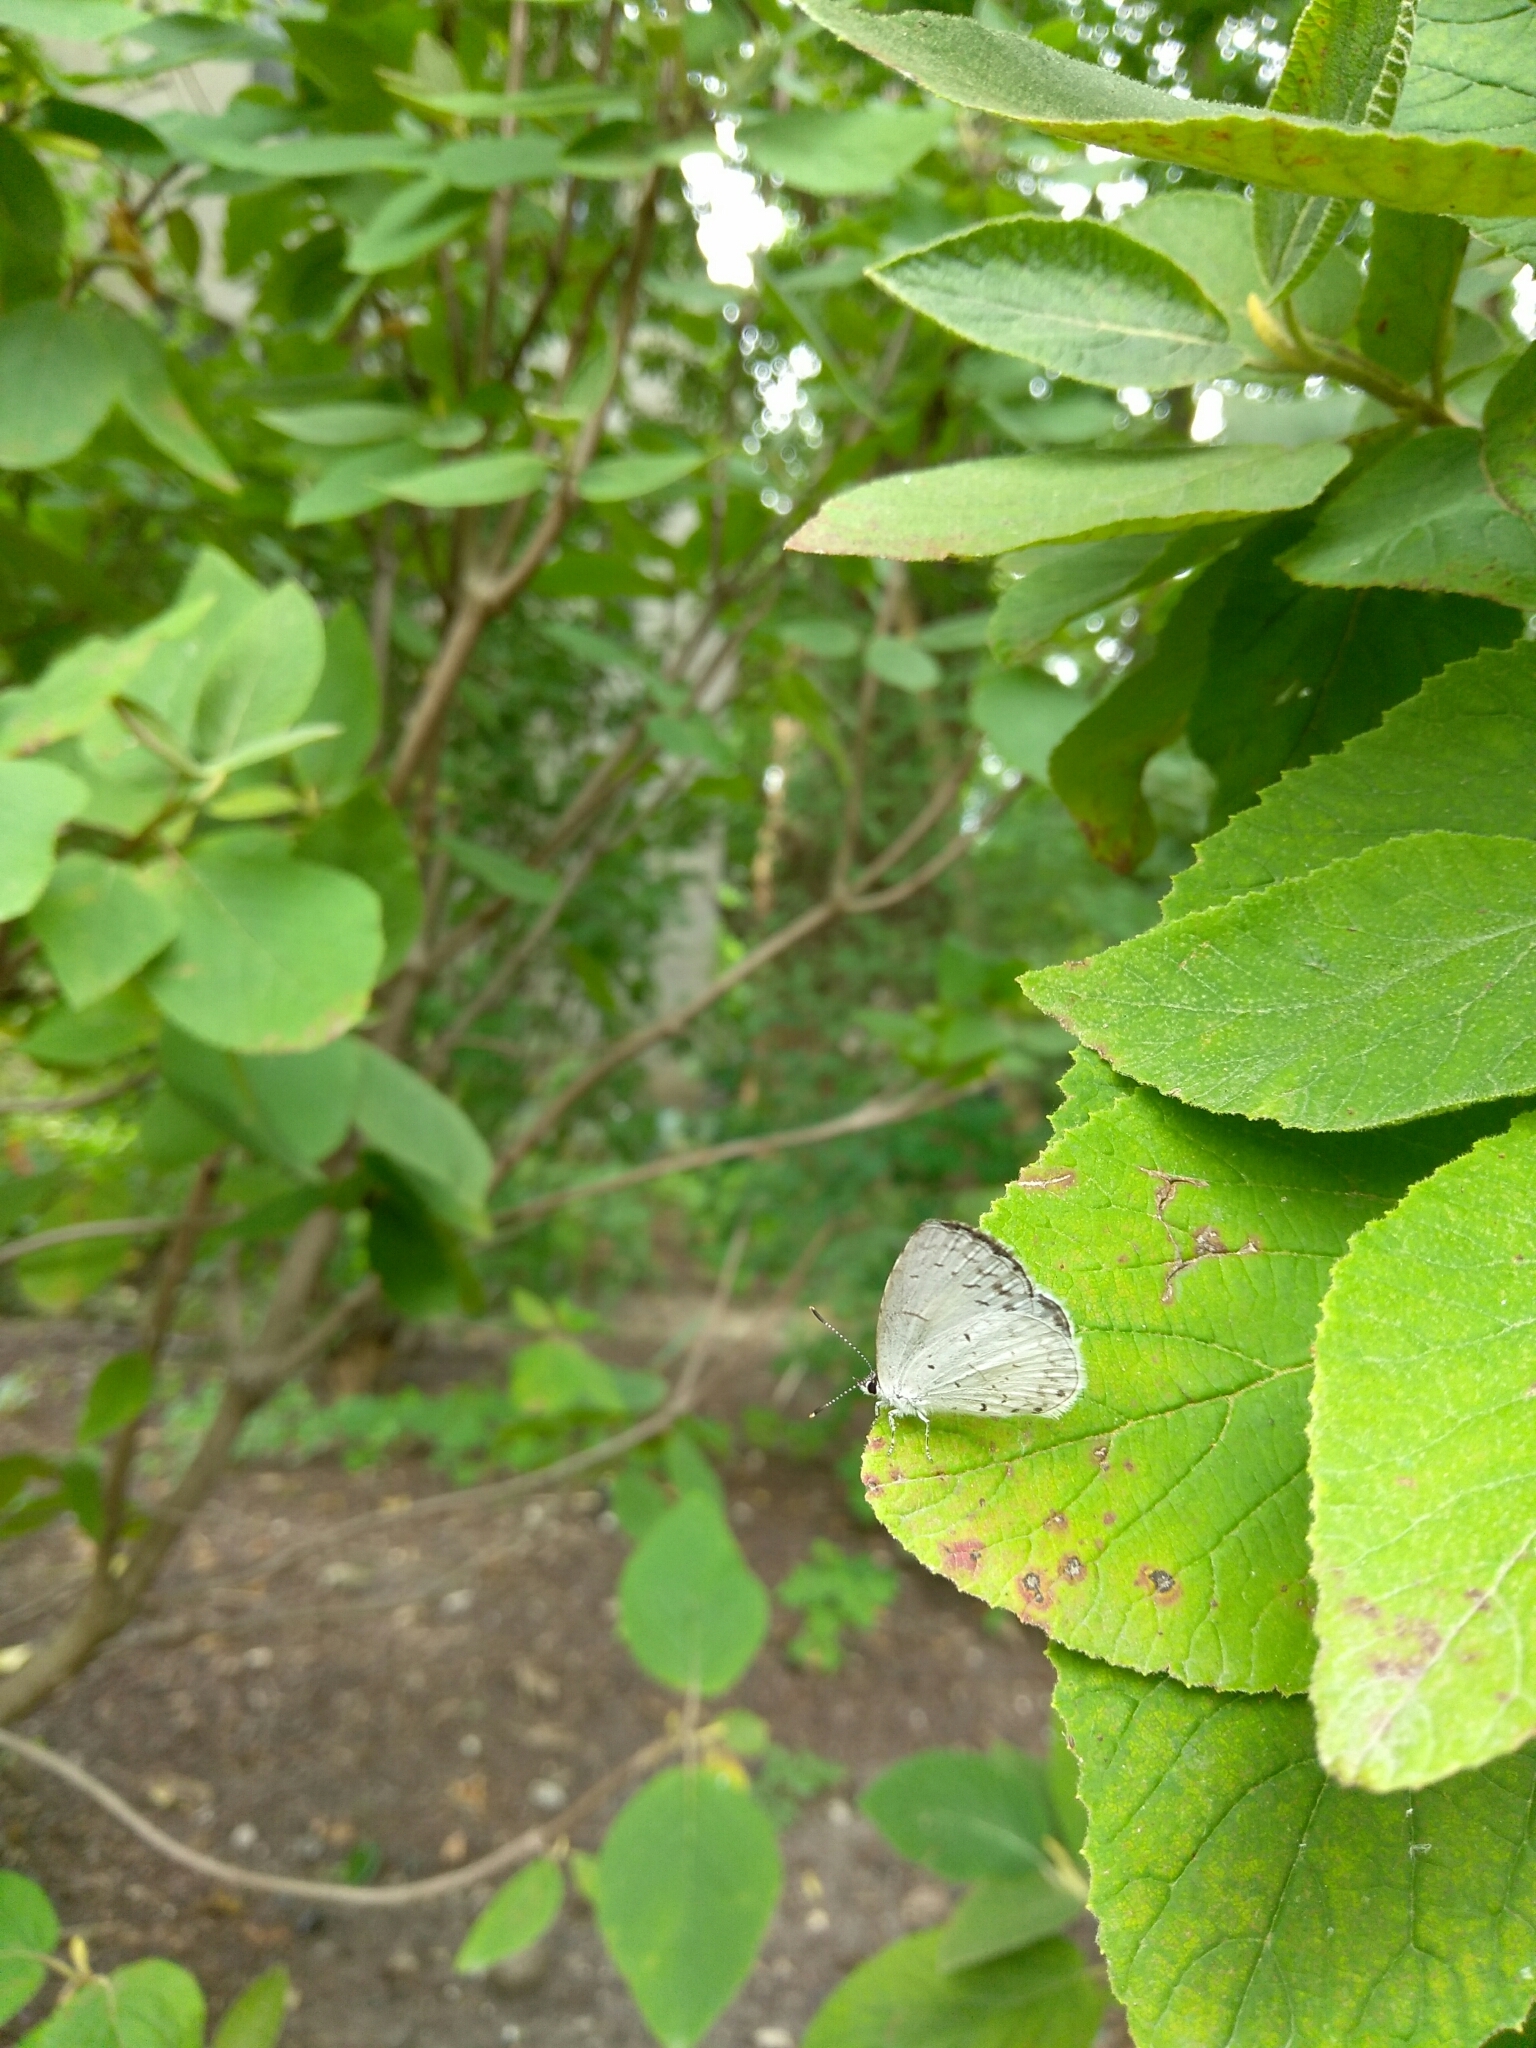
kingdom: Animalia
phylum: Arthropoda
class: Insecta
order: Lepidoptera
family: Lycaenidae
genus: Cyaniris
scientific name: Cyaniris neglecta
